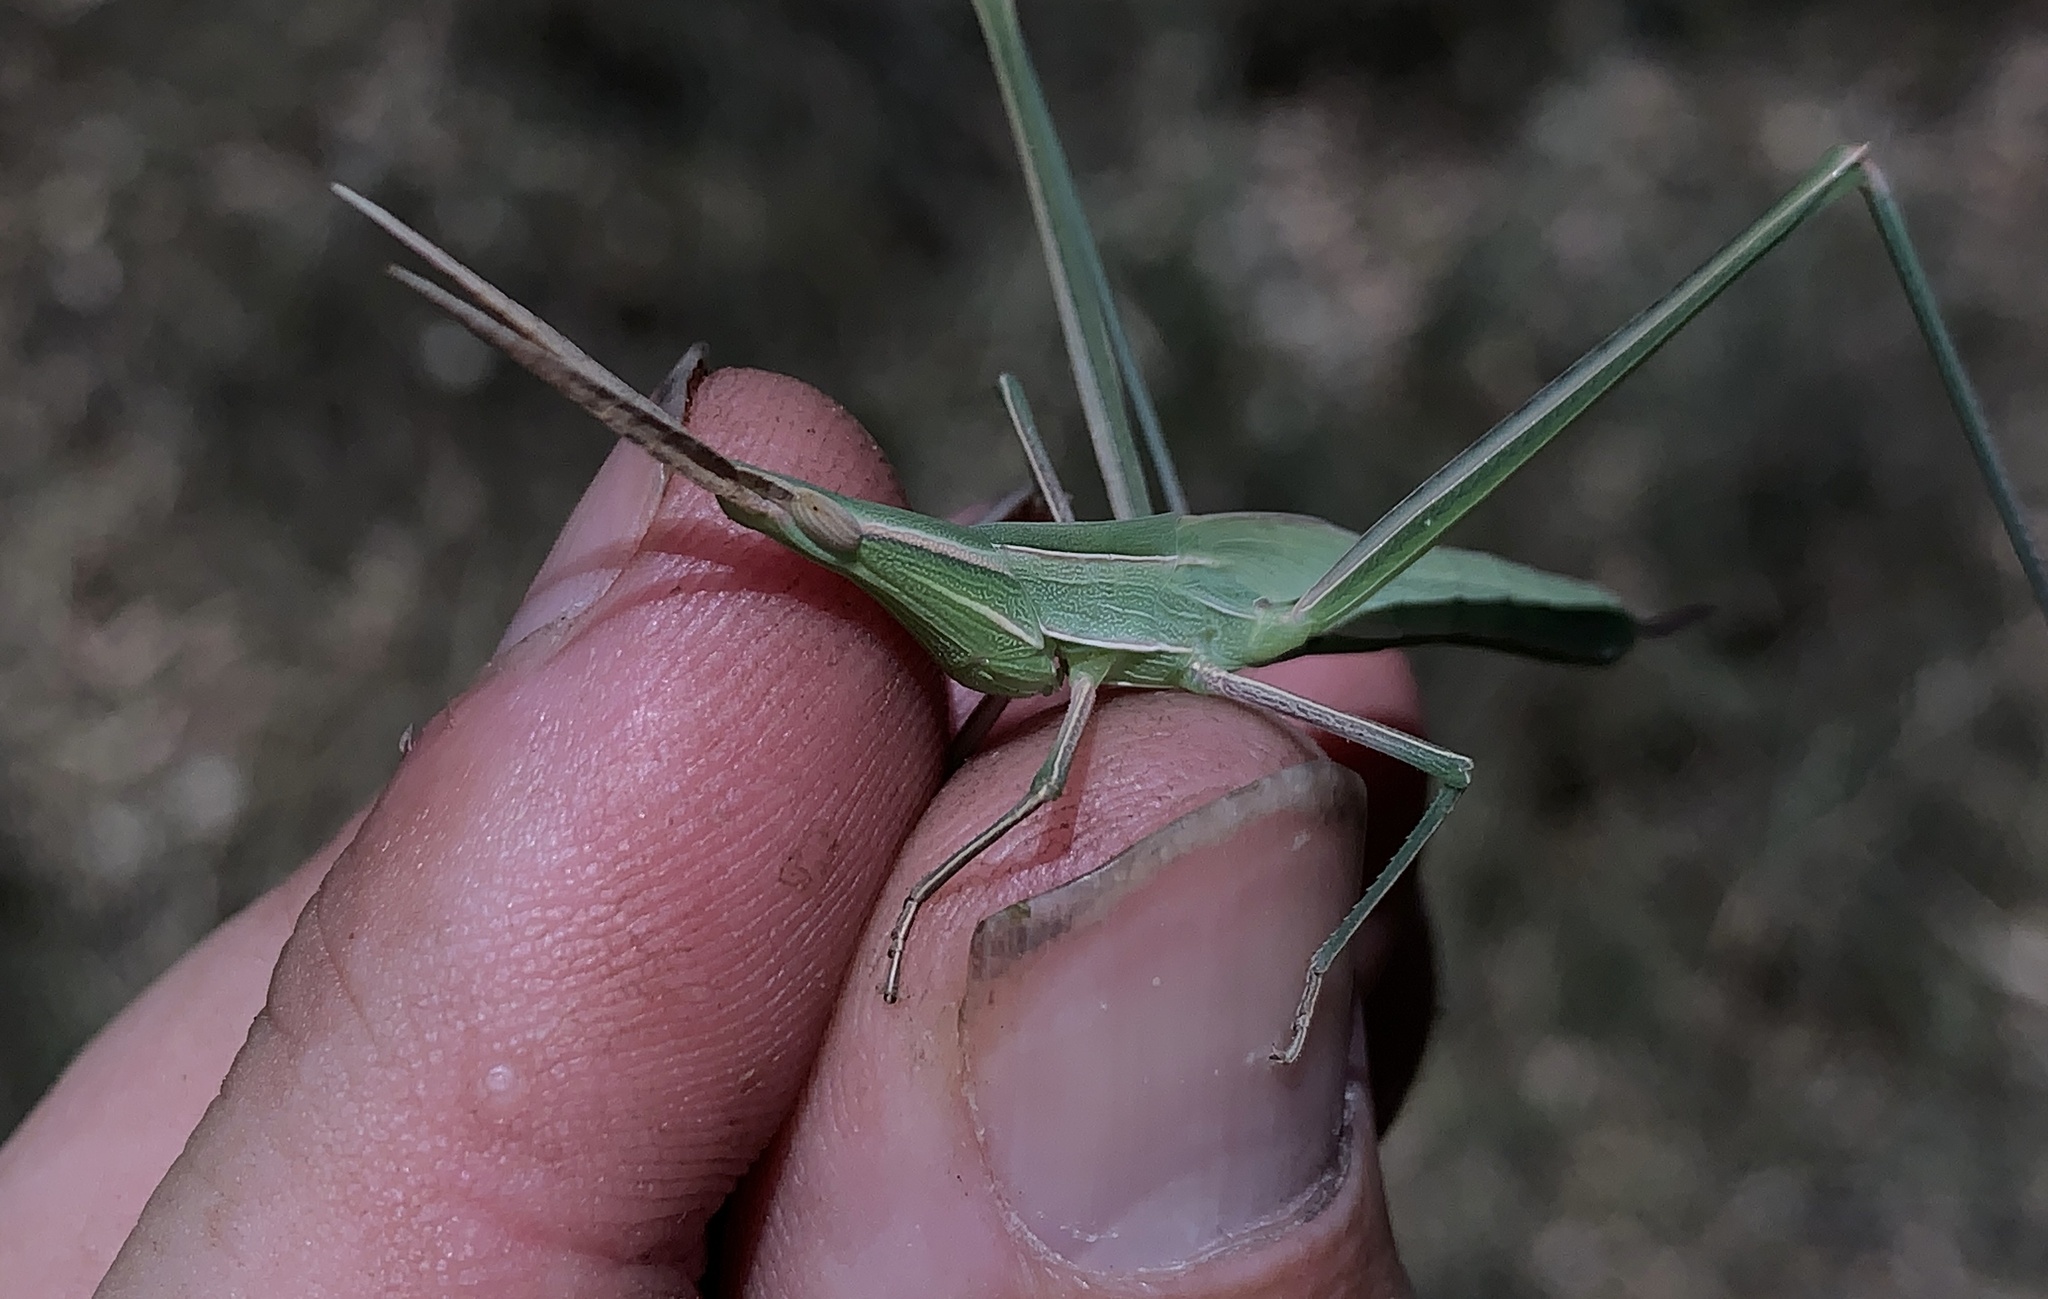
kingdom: Animalia
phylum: Arthropoda
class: Insecta
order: Orthoptera
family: Acrididae
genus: Acrida
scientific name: Acrida conica
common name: Giant green slantface
